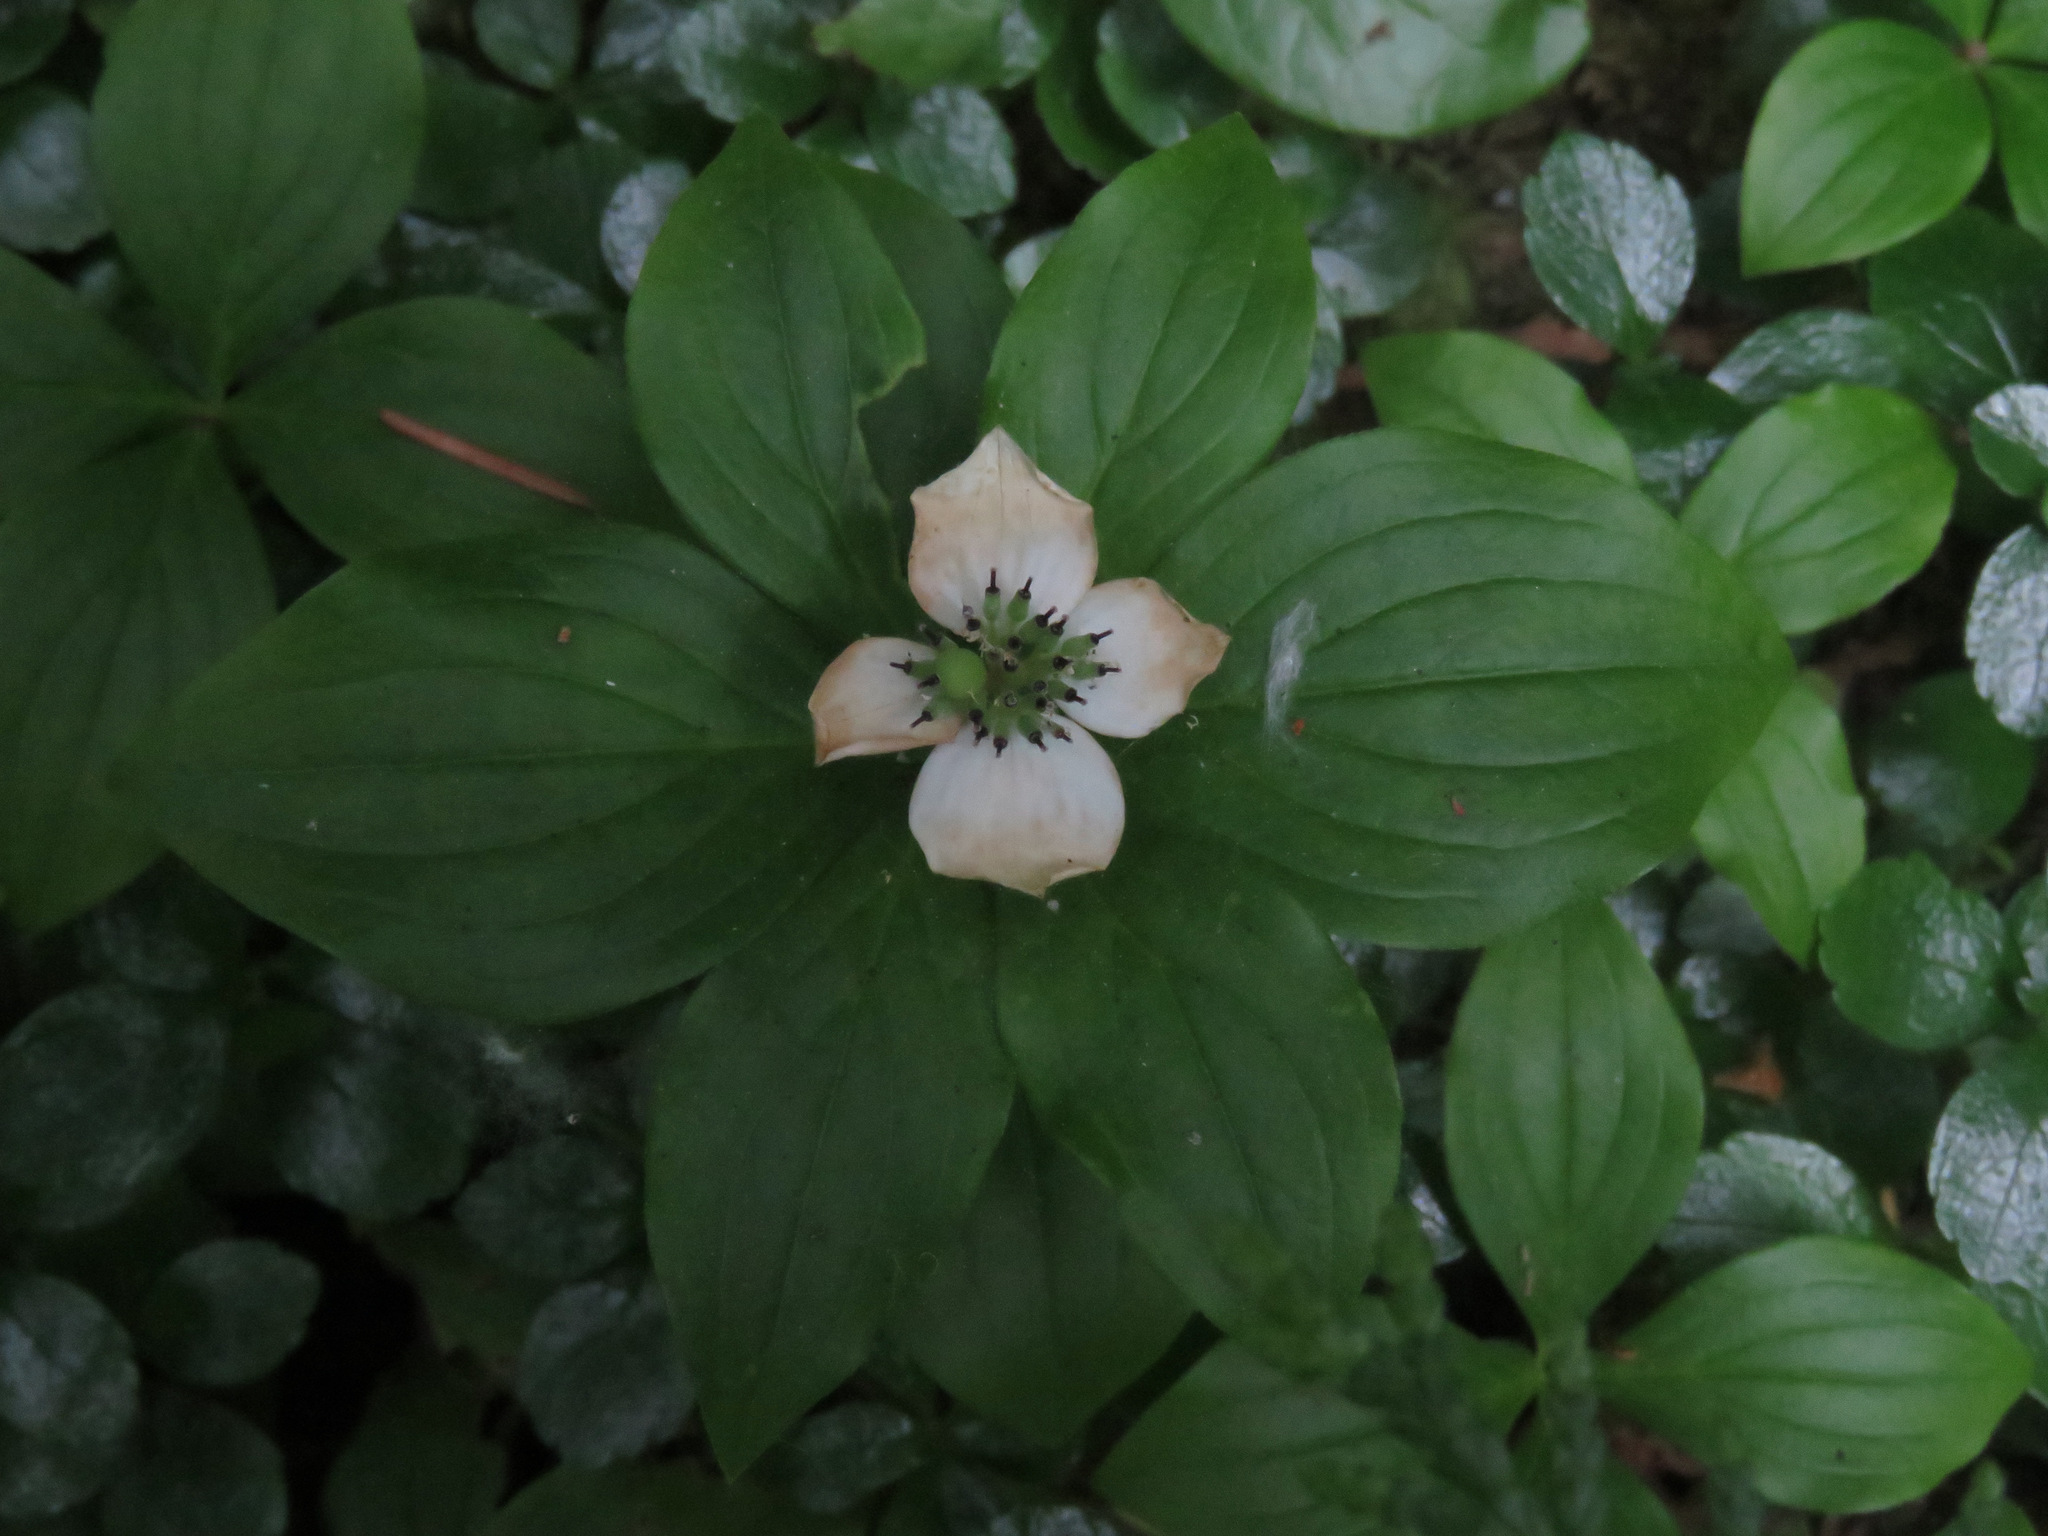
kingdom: Plantae
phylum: Tracheophyta
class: Magnoliopsida
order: Cornales
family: Cornaceae
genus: Cornus
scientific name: Cornus unalaschkensis
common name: Alaska bunchberry
